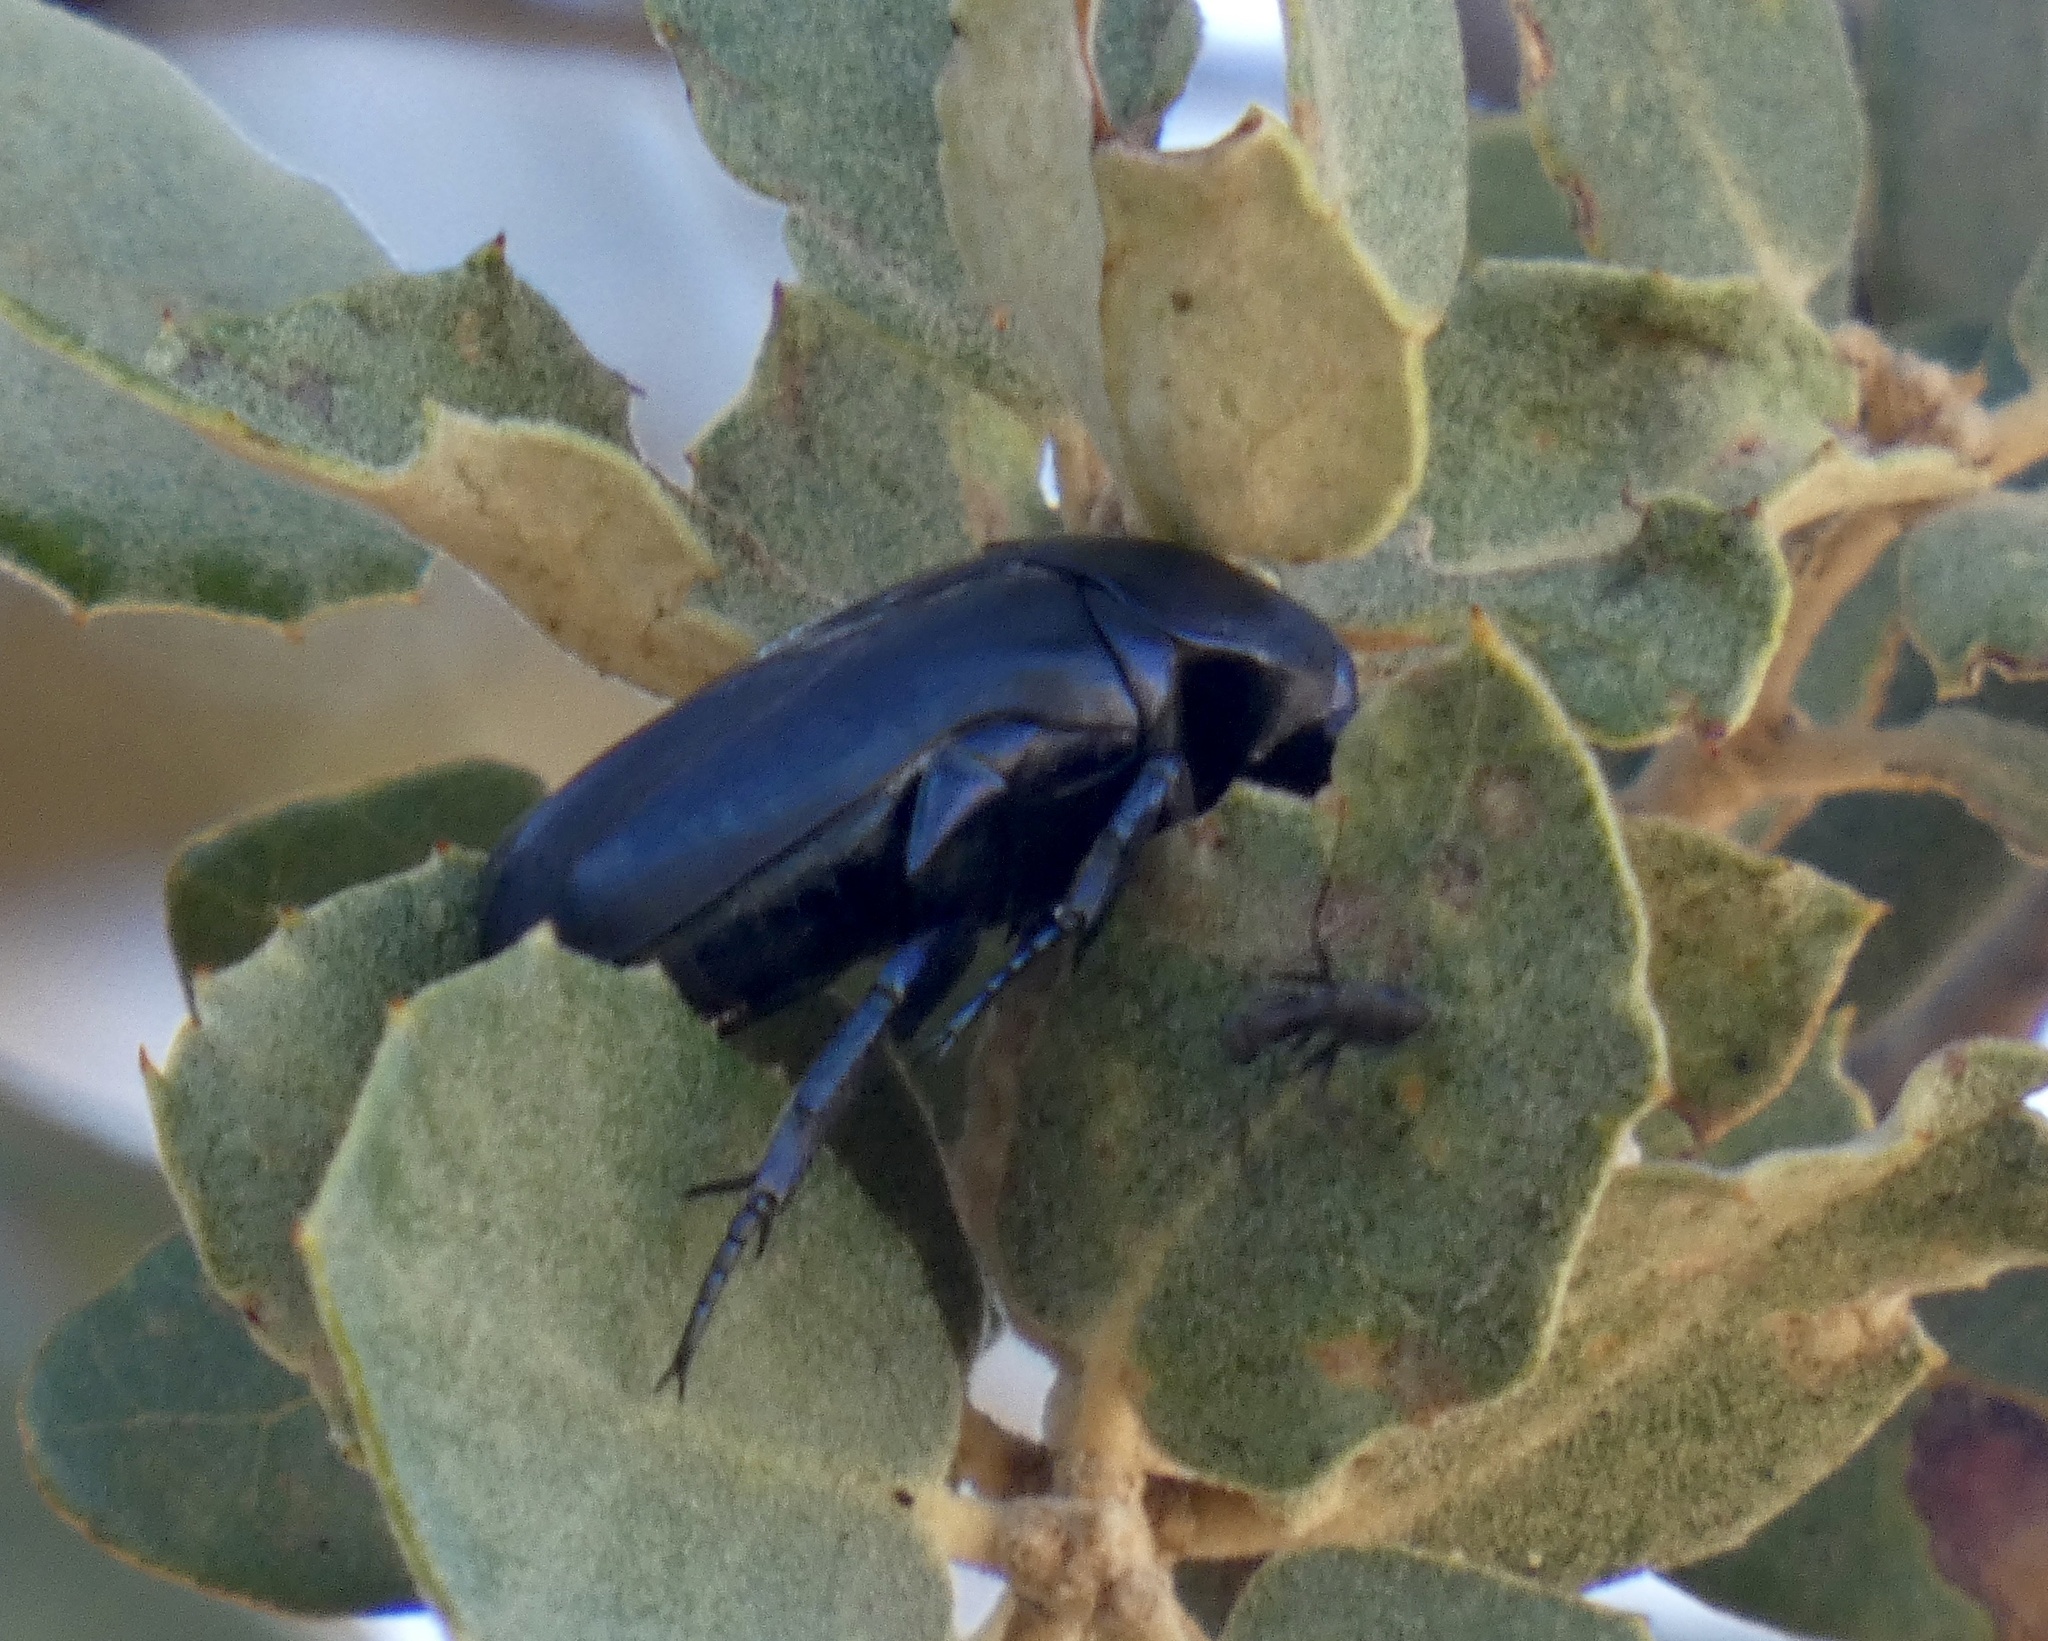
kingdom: Animalia
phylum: Arthropoda
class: Insecta
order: Coleoptera
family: Scarabaeidae
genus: Protaetia
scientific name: Protaetia opaca
